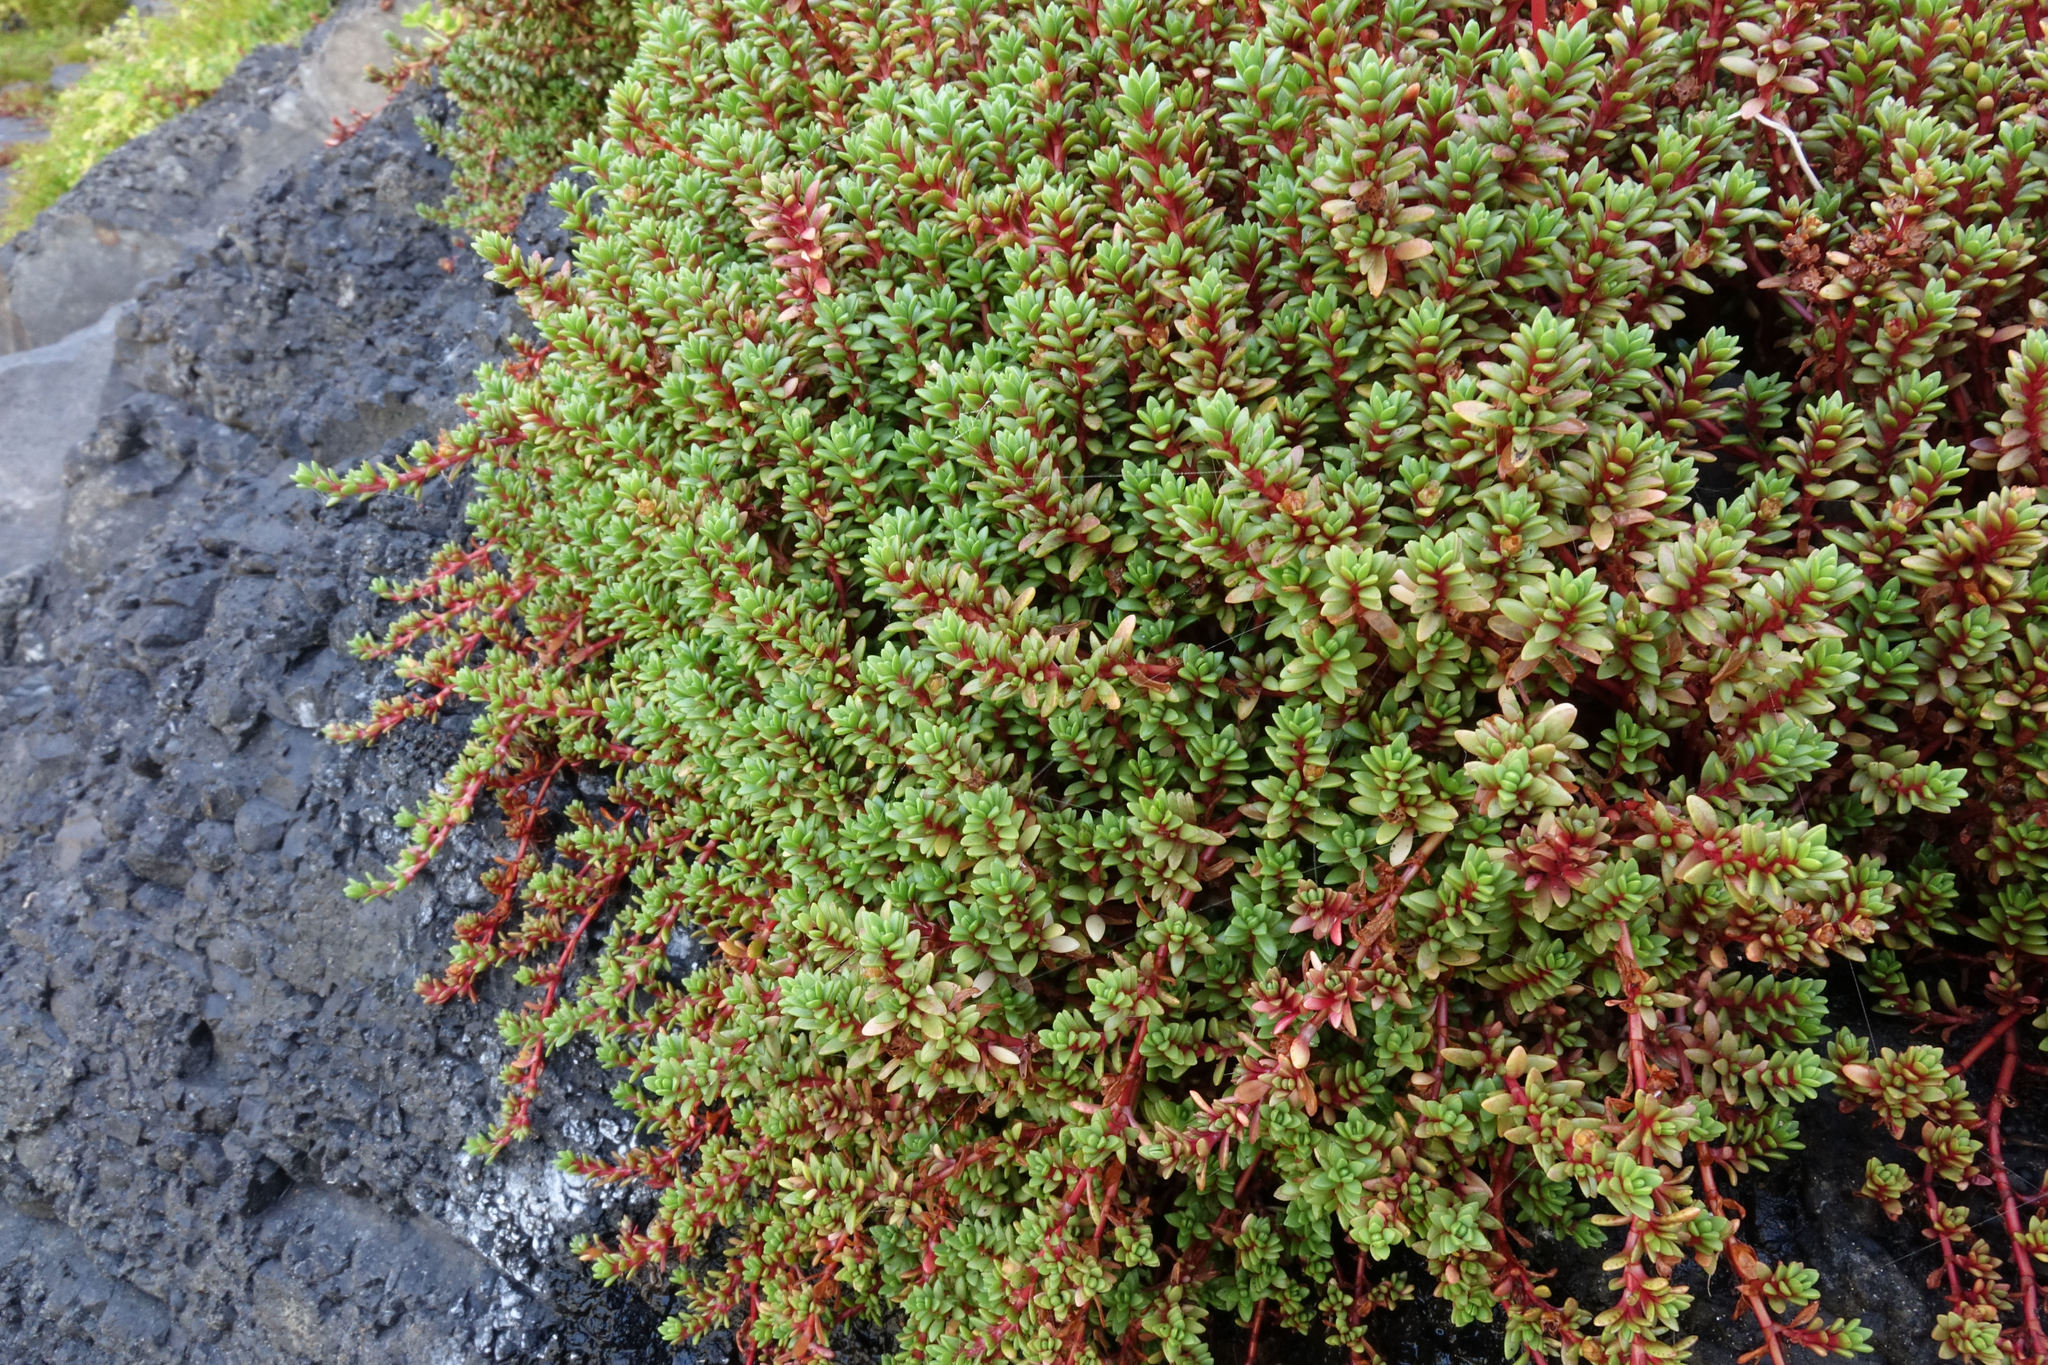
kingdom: Plantae
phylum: Tracheophyta
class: Magnoliopsida
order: Saxifragales
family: Crassulaceae
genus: Crassula
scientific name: Crassula moschata
